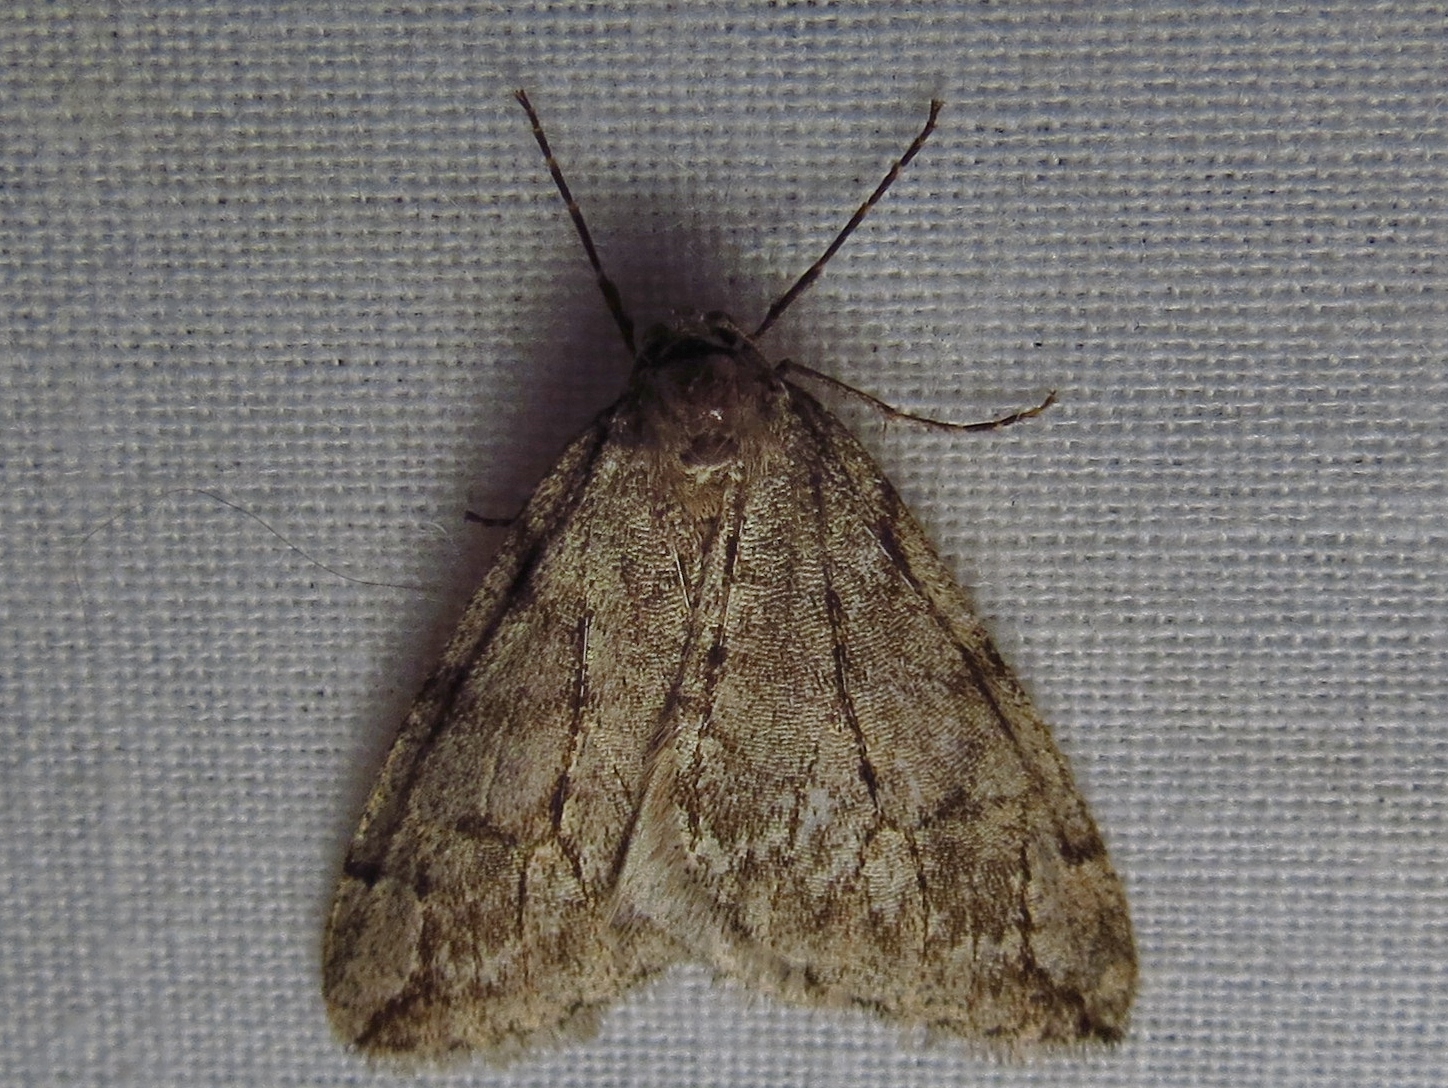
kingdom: Animalia
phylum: Arthropoda
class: Insecta
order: Lepidoptera
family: Geometridae
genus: Paleacrita
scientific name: Paleacrita vernata
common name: Spring cankerworm
